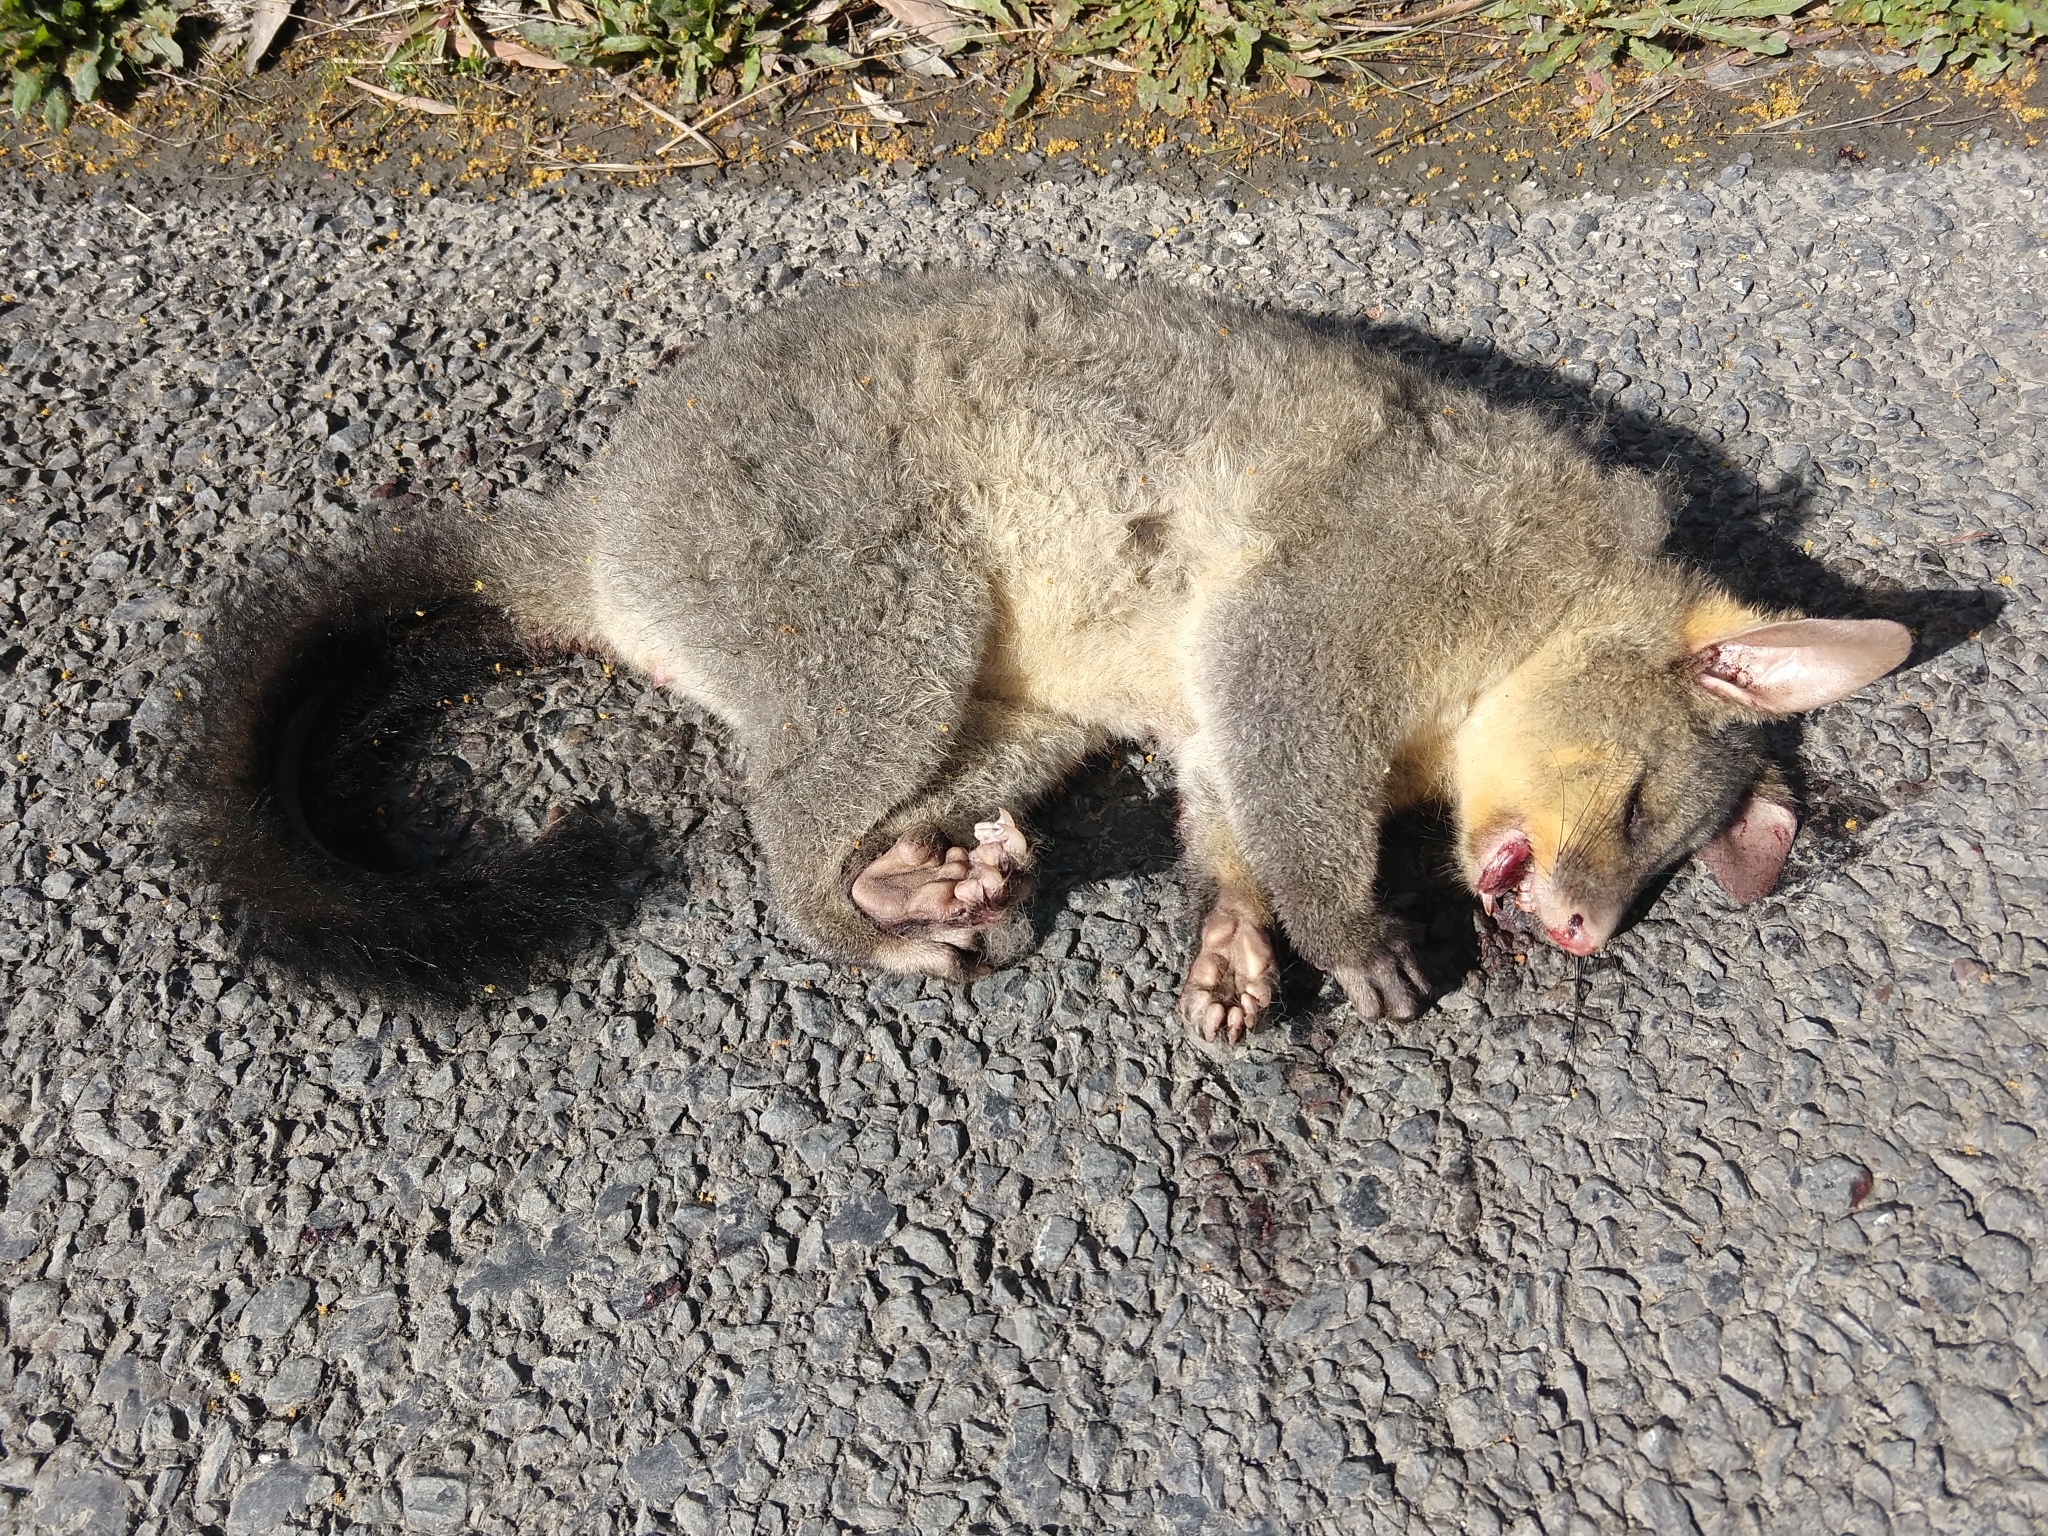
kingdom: Animalia
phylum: Chordata
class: Mammalia
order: Diprotodontia
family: Phalangeridae
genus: Trichosurus
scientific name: Trichosurus vulpecula
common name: Common brushtail
